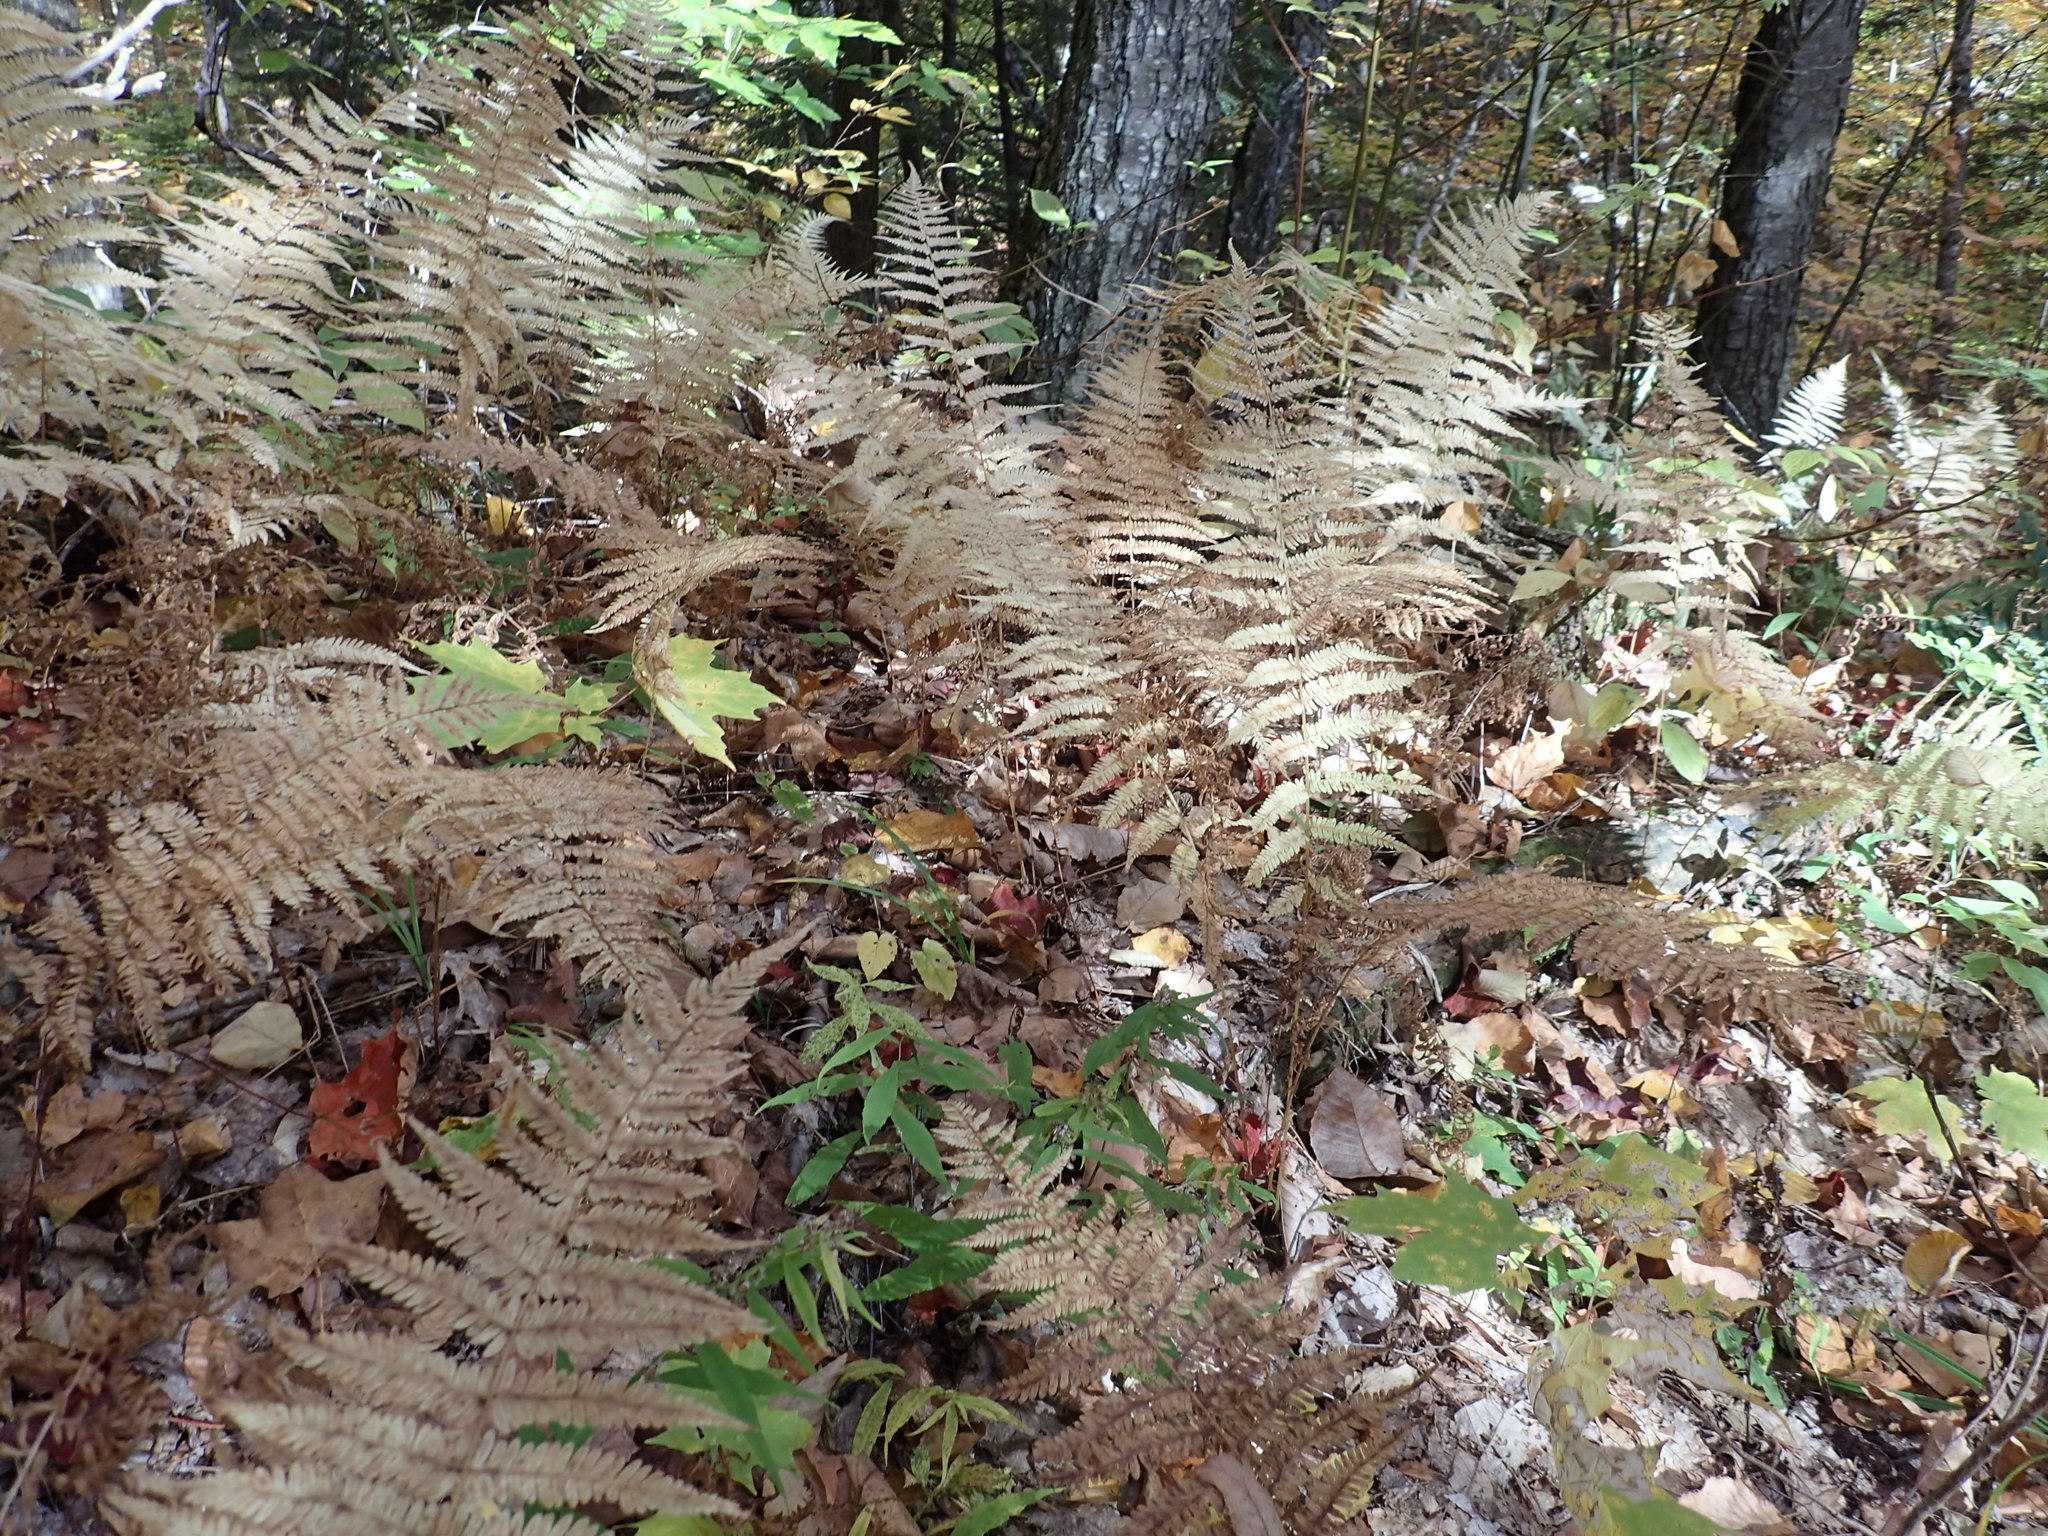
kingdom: Plantae
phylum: Tracheophyta
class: Polypodiopsida
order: Polypodiales
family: Thelypteridaceae
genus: Amauropelta
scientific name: Amauropelta noveboracensis
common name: New york fern
